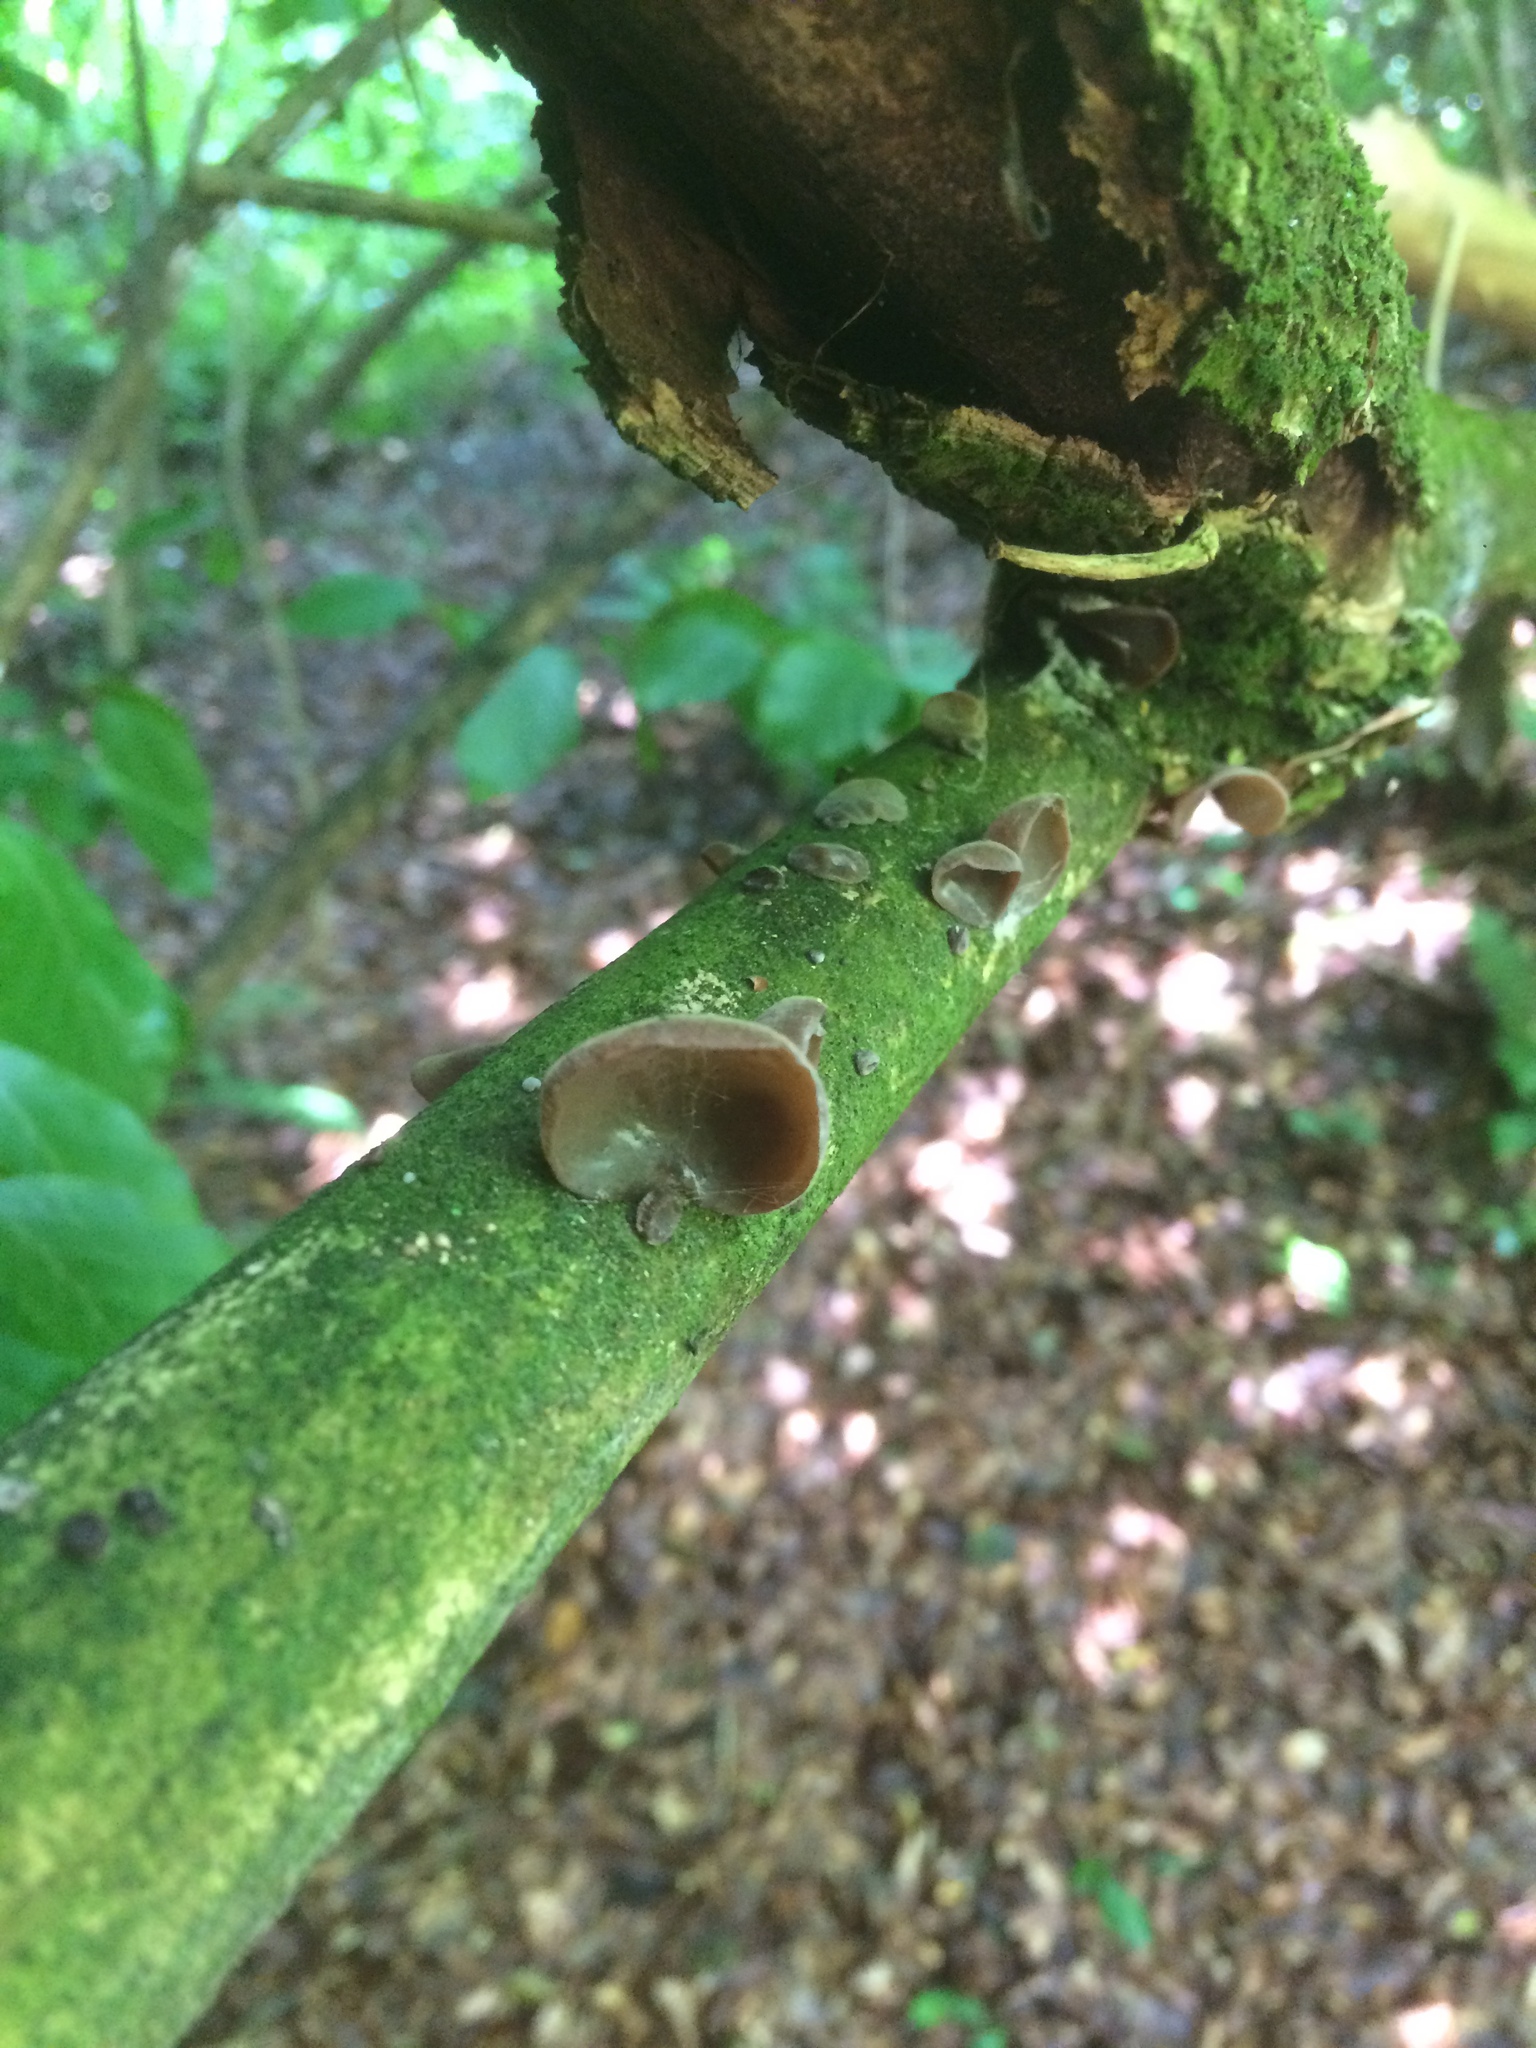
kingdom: Fungi
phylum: Basidiomycota
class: Agaricomycetes
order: Auriculariales
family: Auriculariaceae
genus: Auricularia
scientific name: Auricularia auricula-judae
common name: Jelly ear
